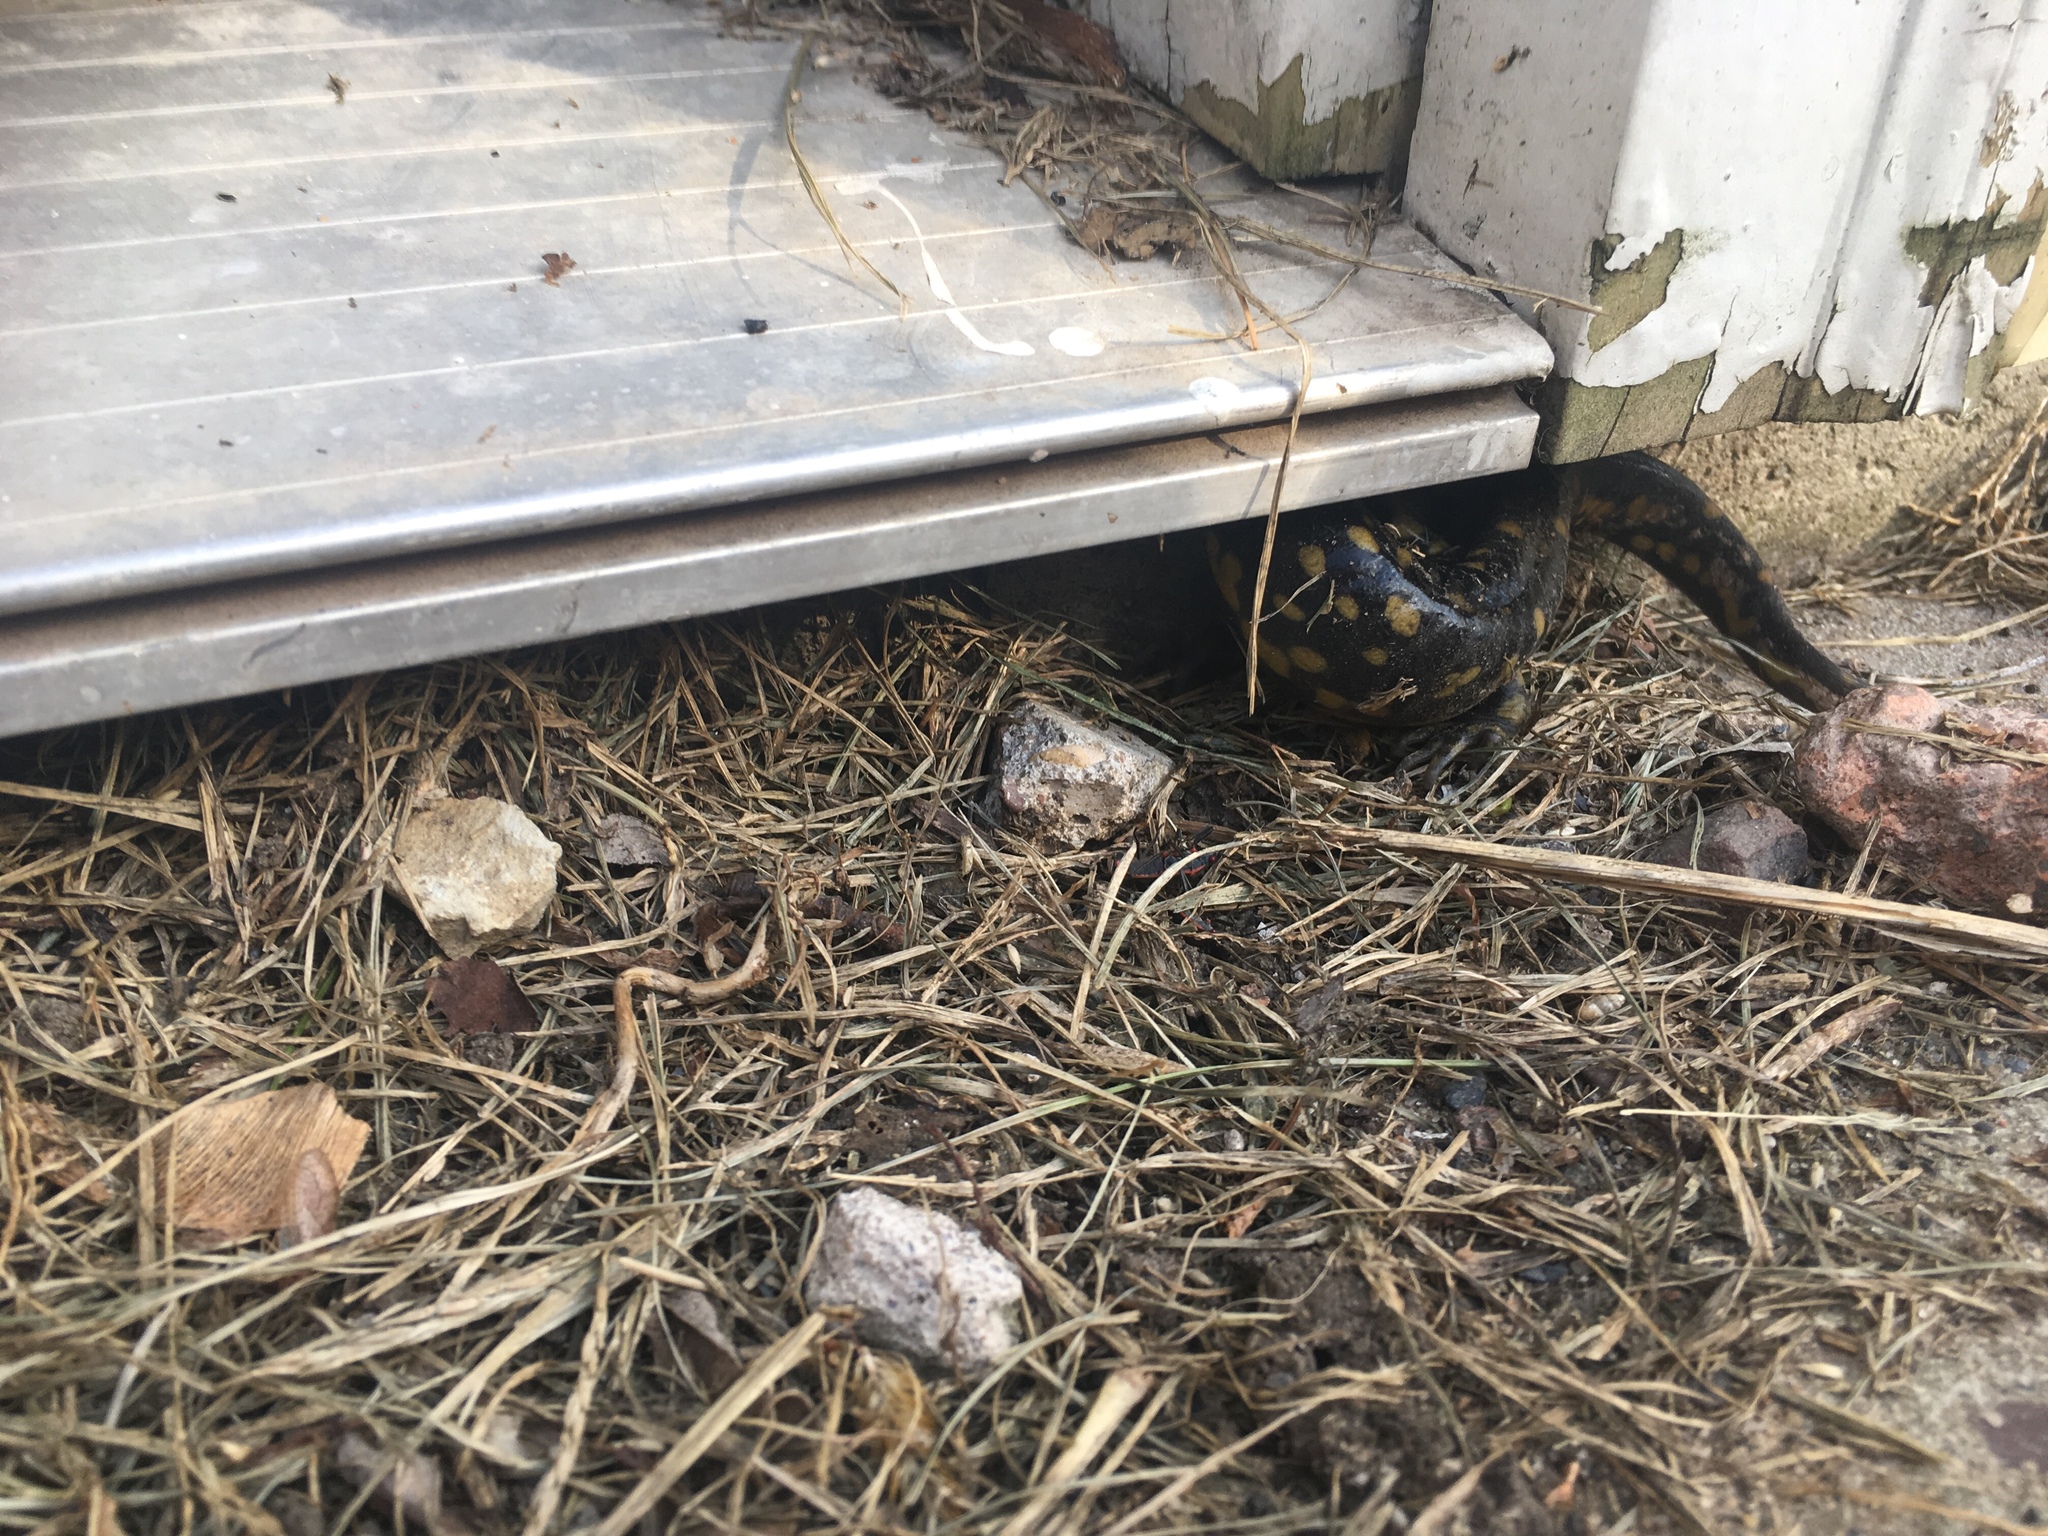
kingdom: Animalia
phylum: Chordata
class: Amphibia
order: Caudata
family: Ambystomatidae
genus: Ambystoma
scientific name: Ambystoma tigrinum
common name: Tiger salamander
